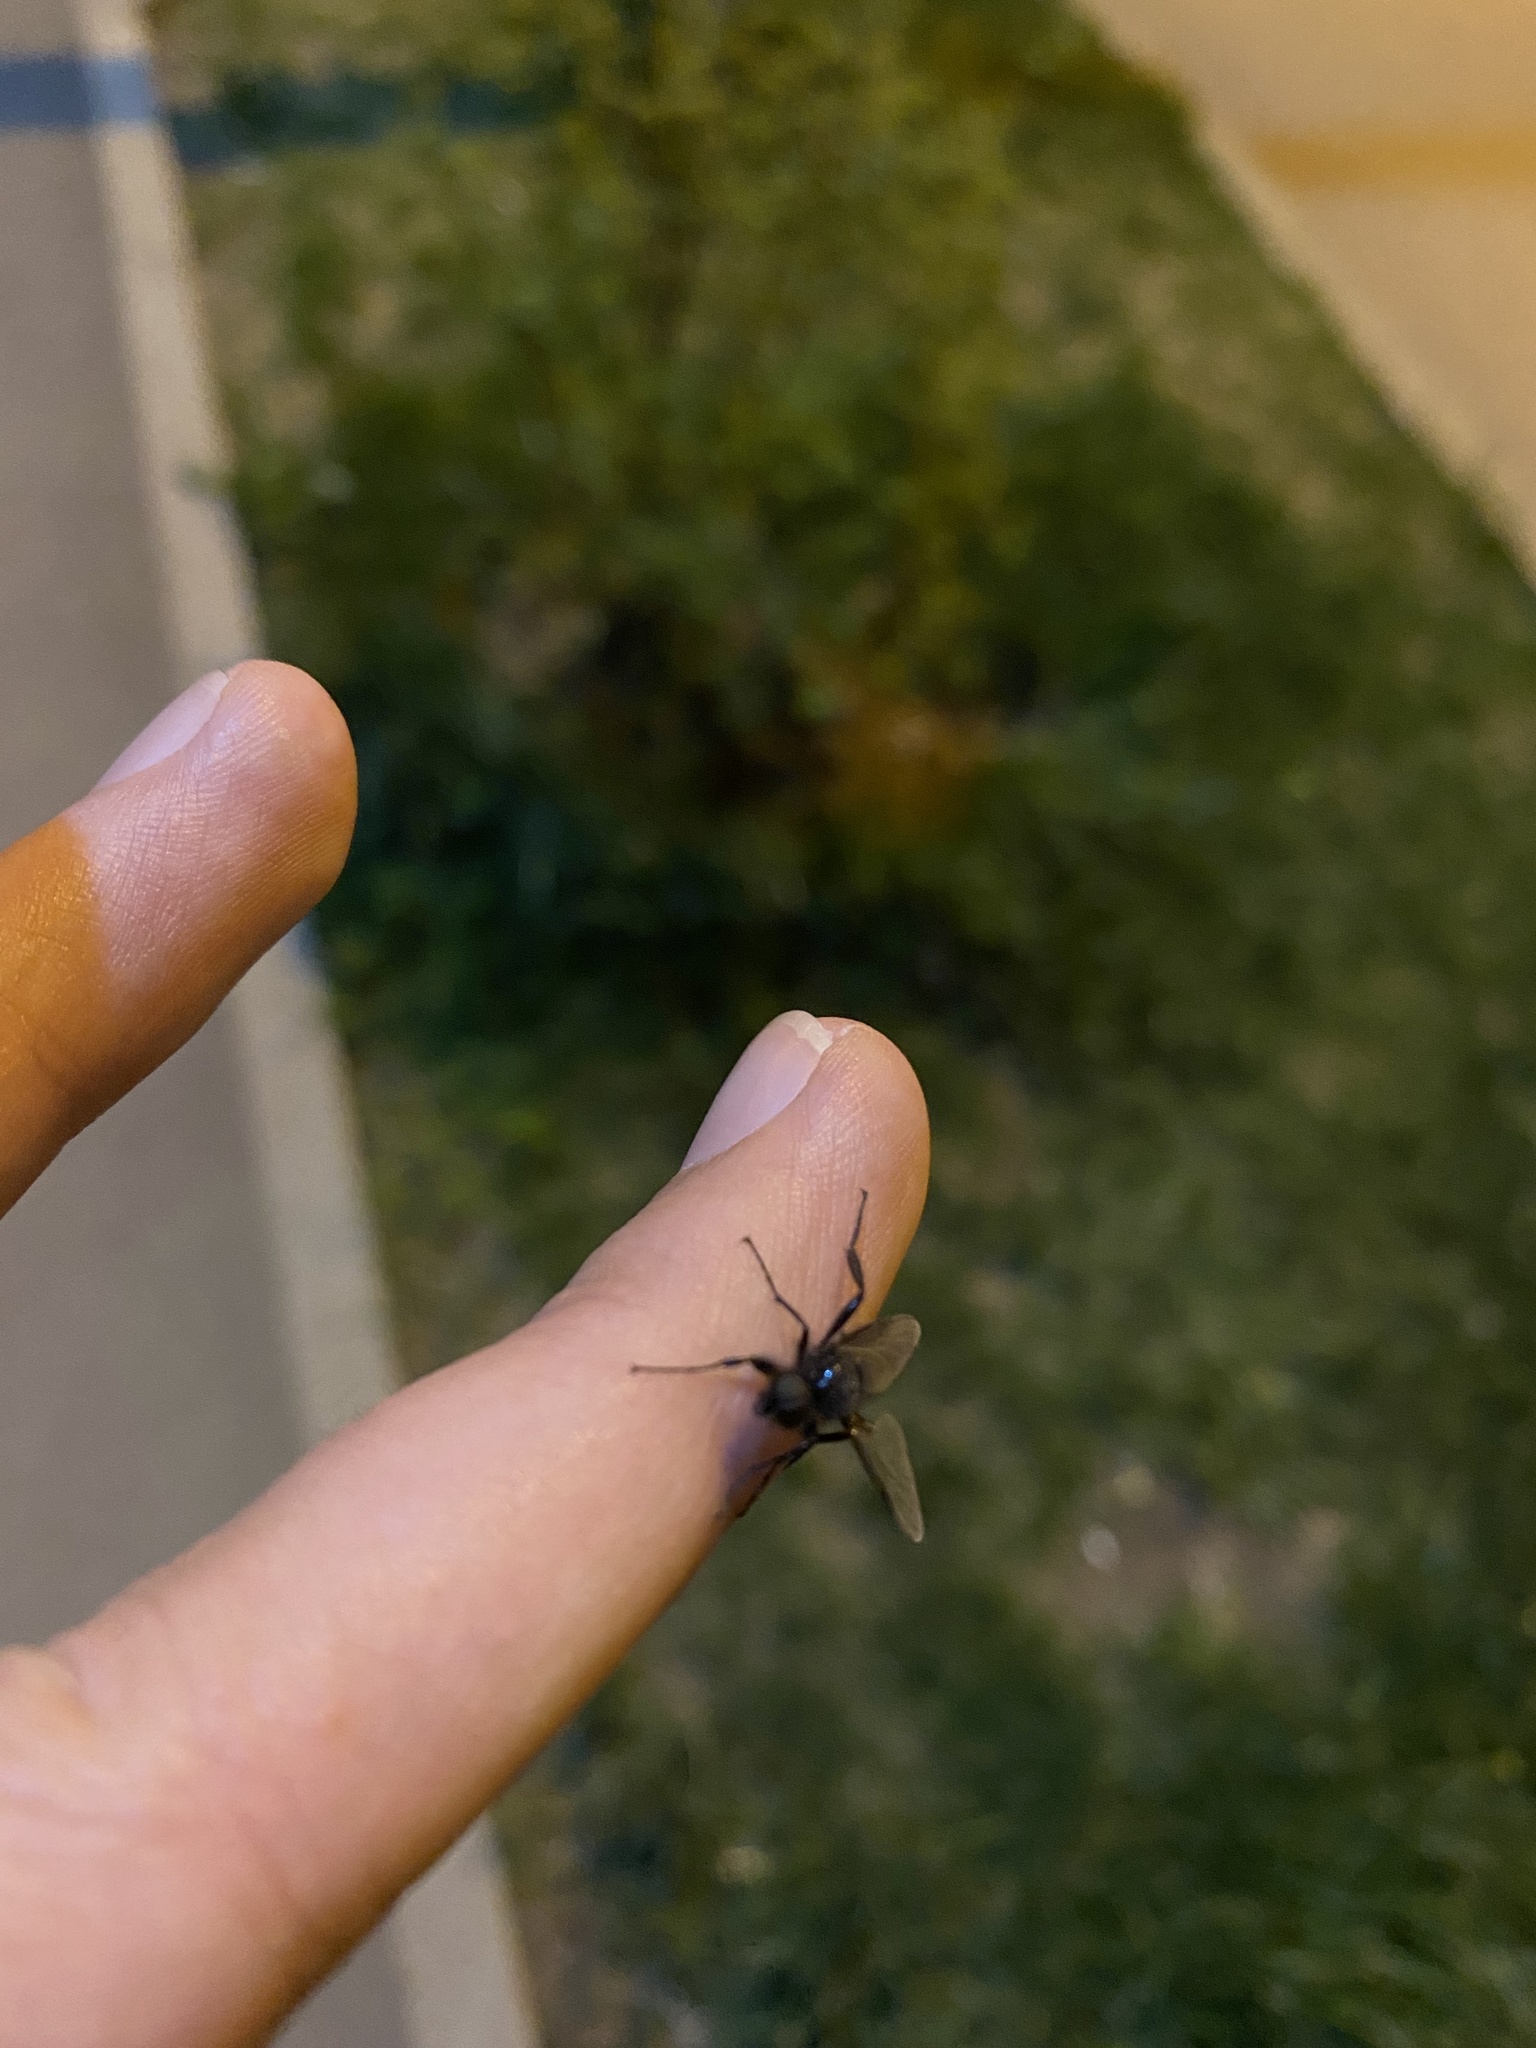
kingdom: Animalia
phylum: Arthropoda
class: Insecta
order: Diptera
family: Bibionidae
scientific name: Bibionidae
